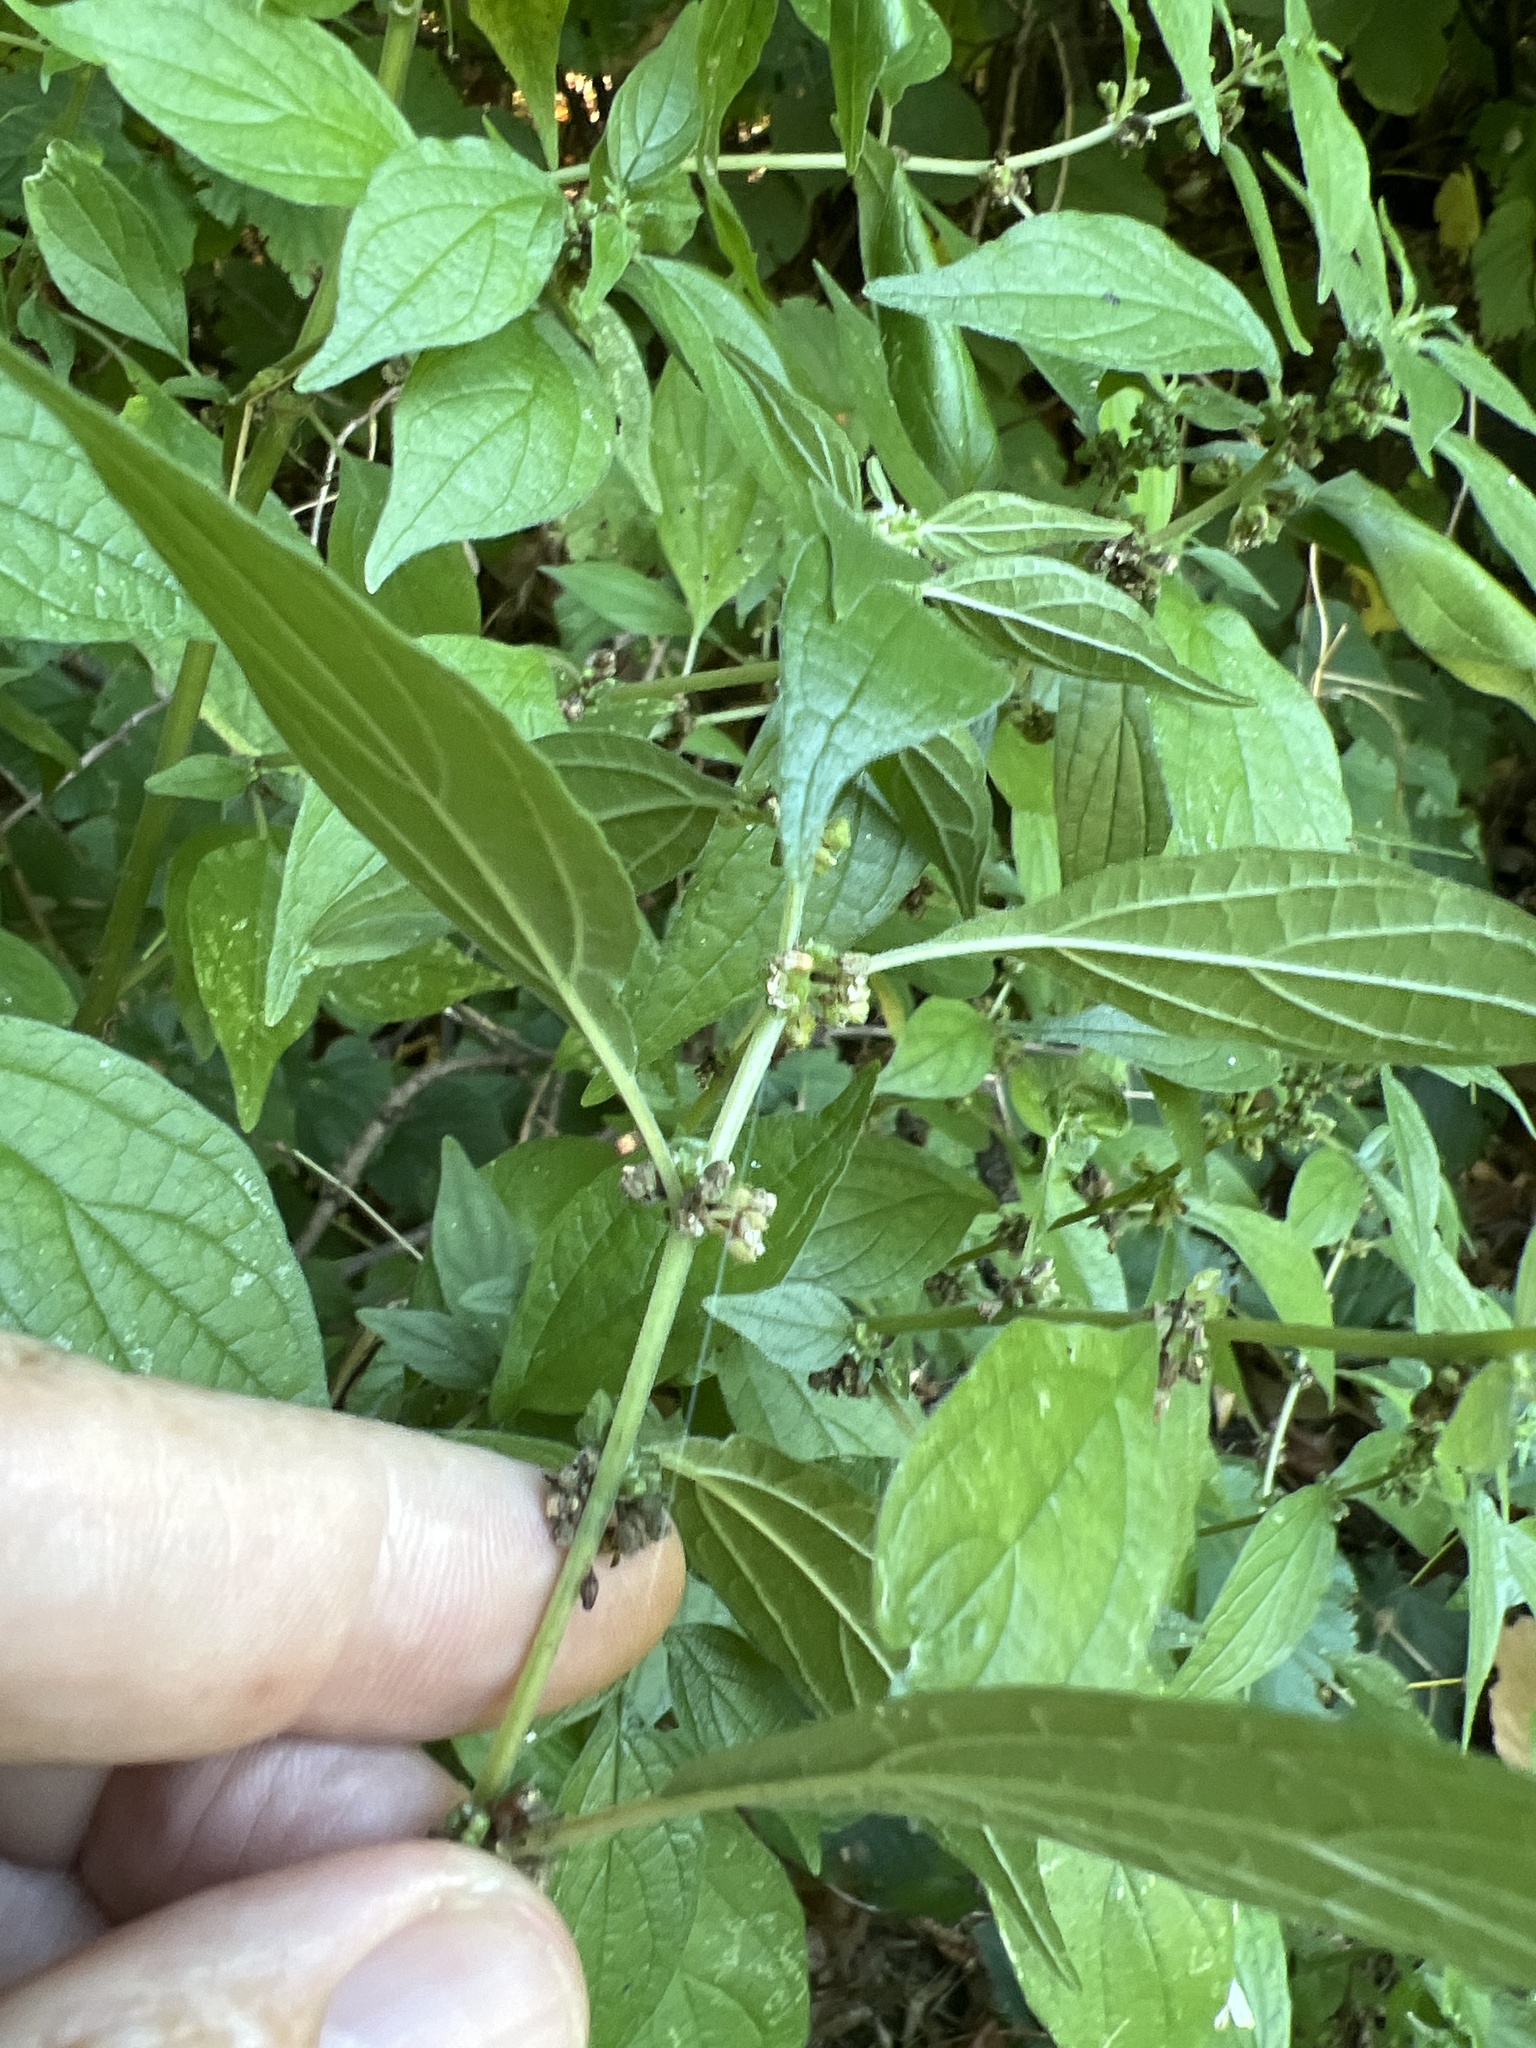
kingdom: Plantae
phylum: Tracheophyta
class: Magnoliopsida
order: Rosales
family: Urticaceae
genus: Parietaria
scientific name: Parietaria officinalis
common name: Eastern pellitory-of-the-wall
